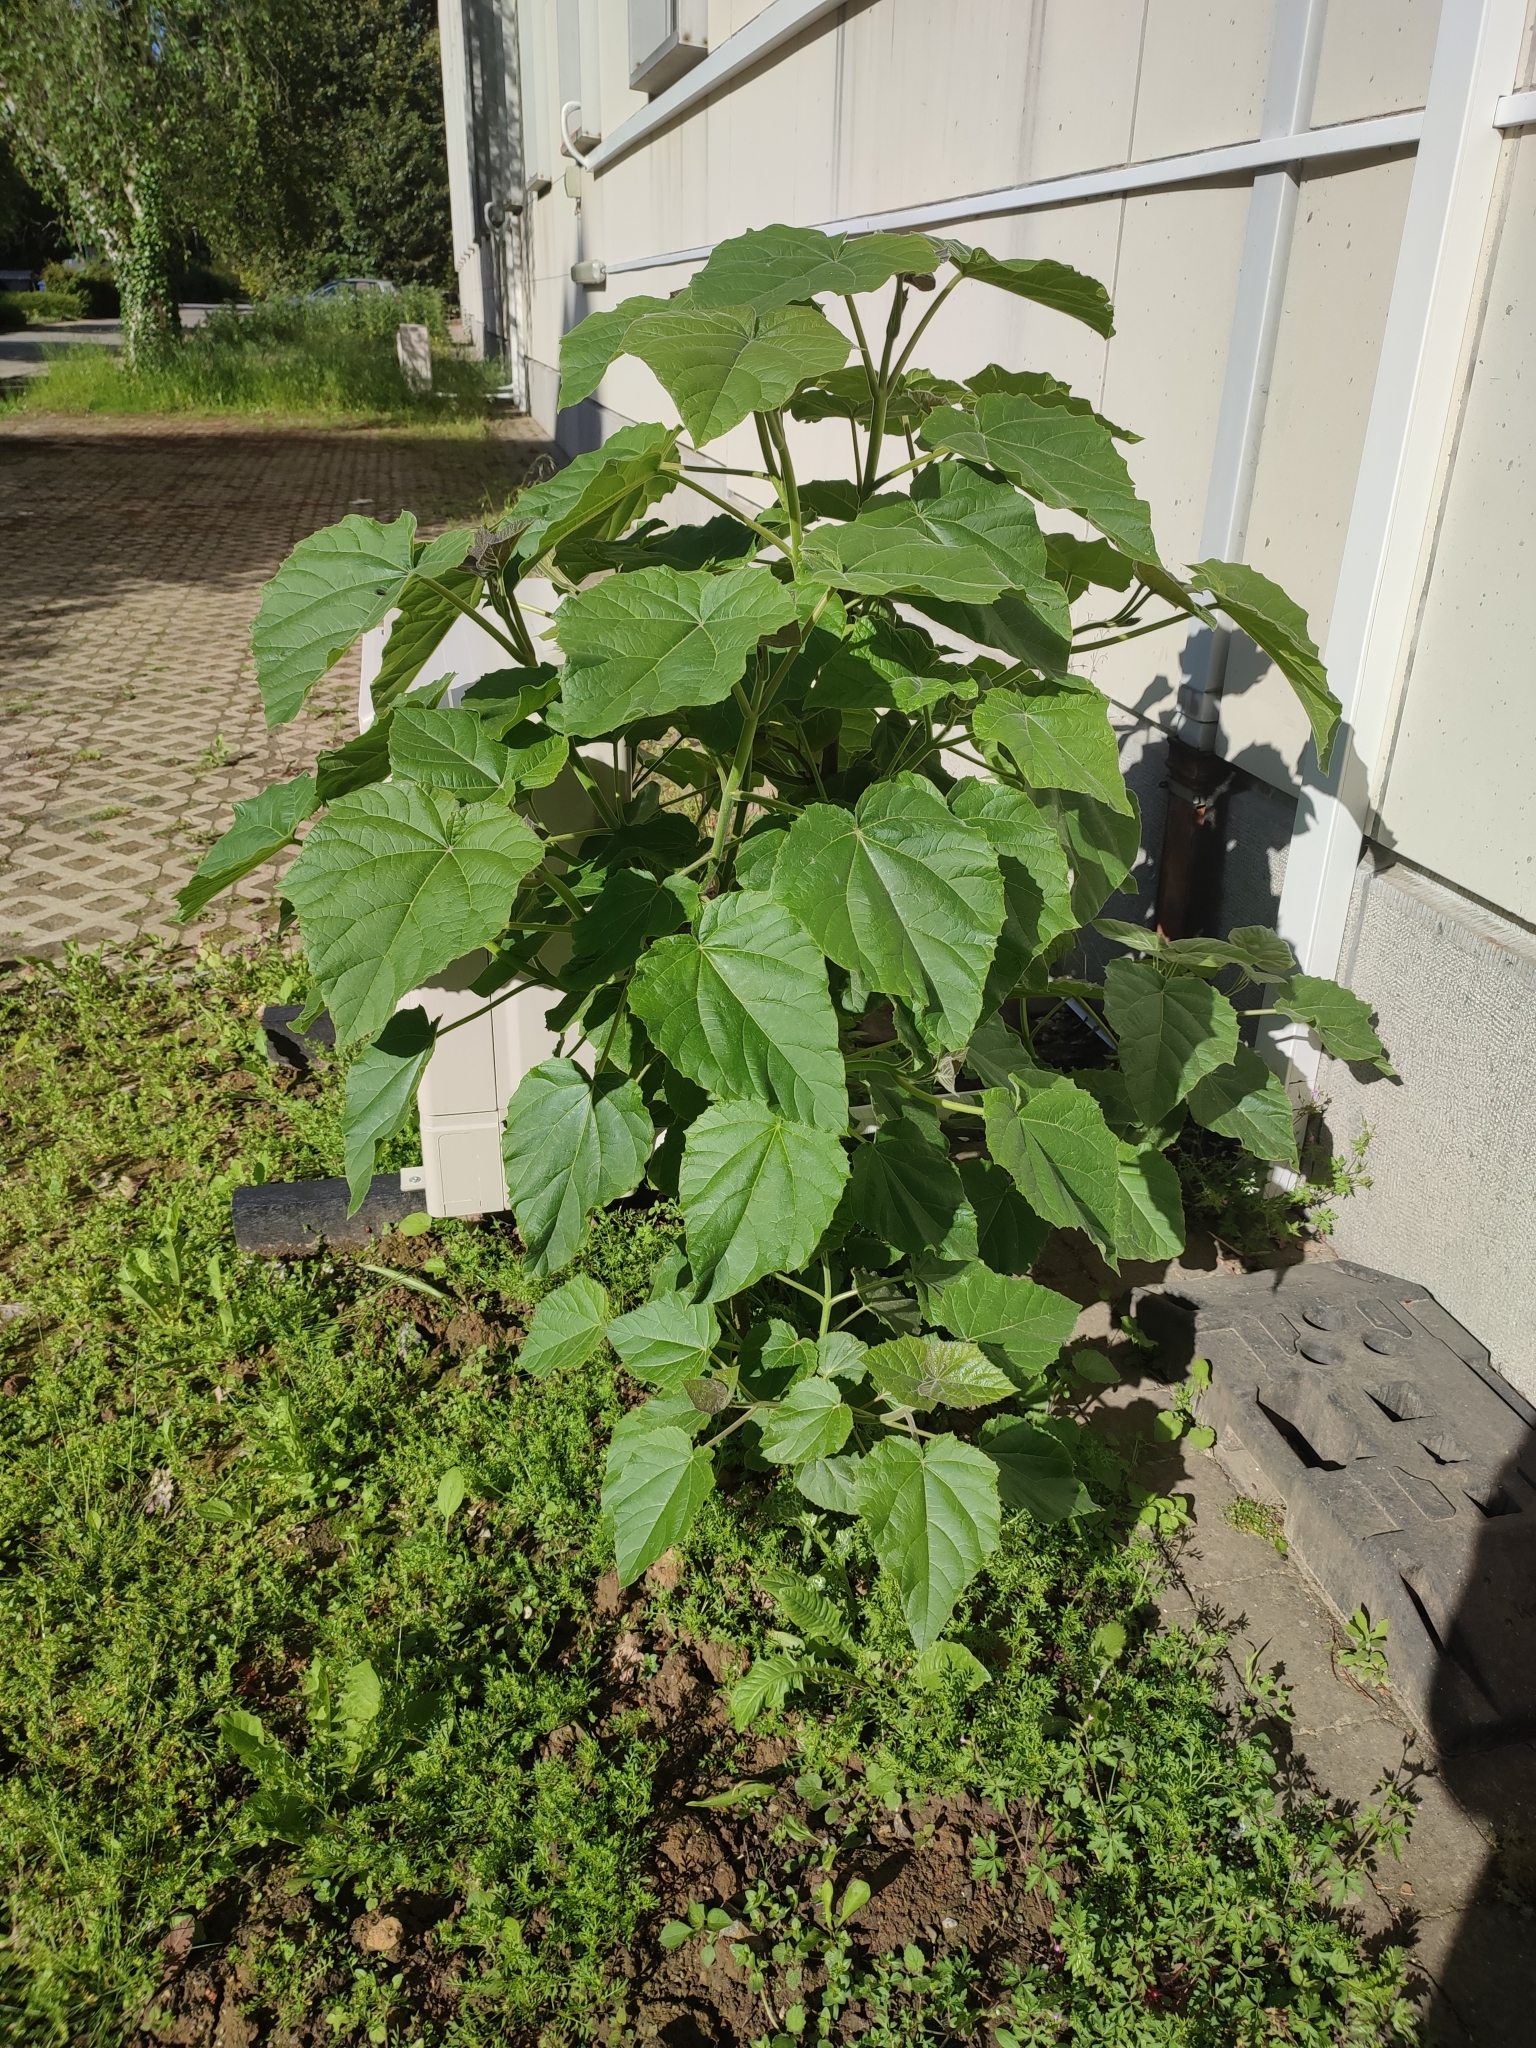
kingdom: Plantae
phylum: Tracheophyta
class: Magnoliopsida
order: Lamiales
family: Paulowniaceae
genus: Paulownia
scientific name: Paulownia tomentosa
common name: Foxglove-tree
